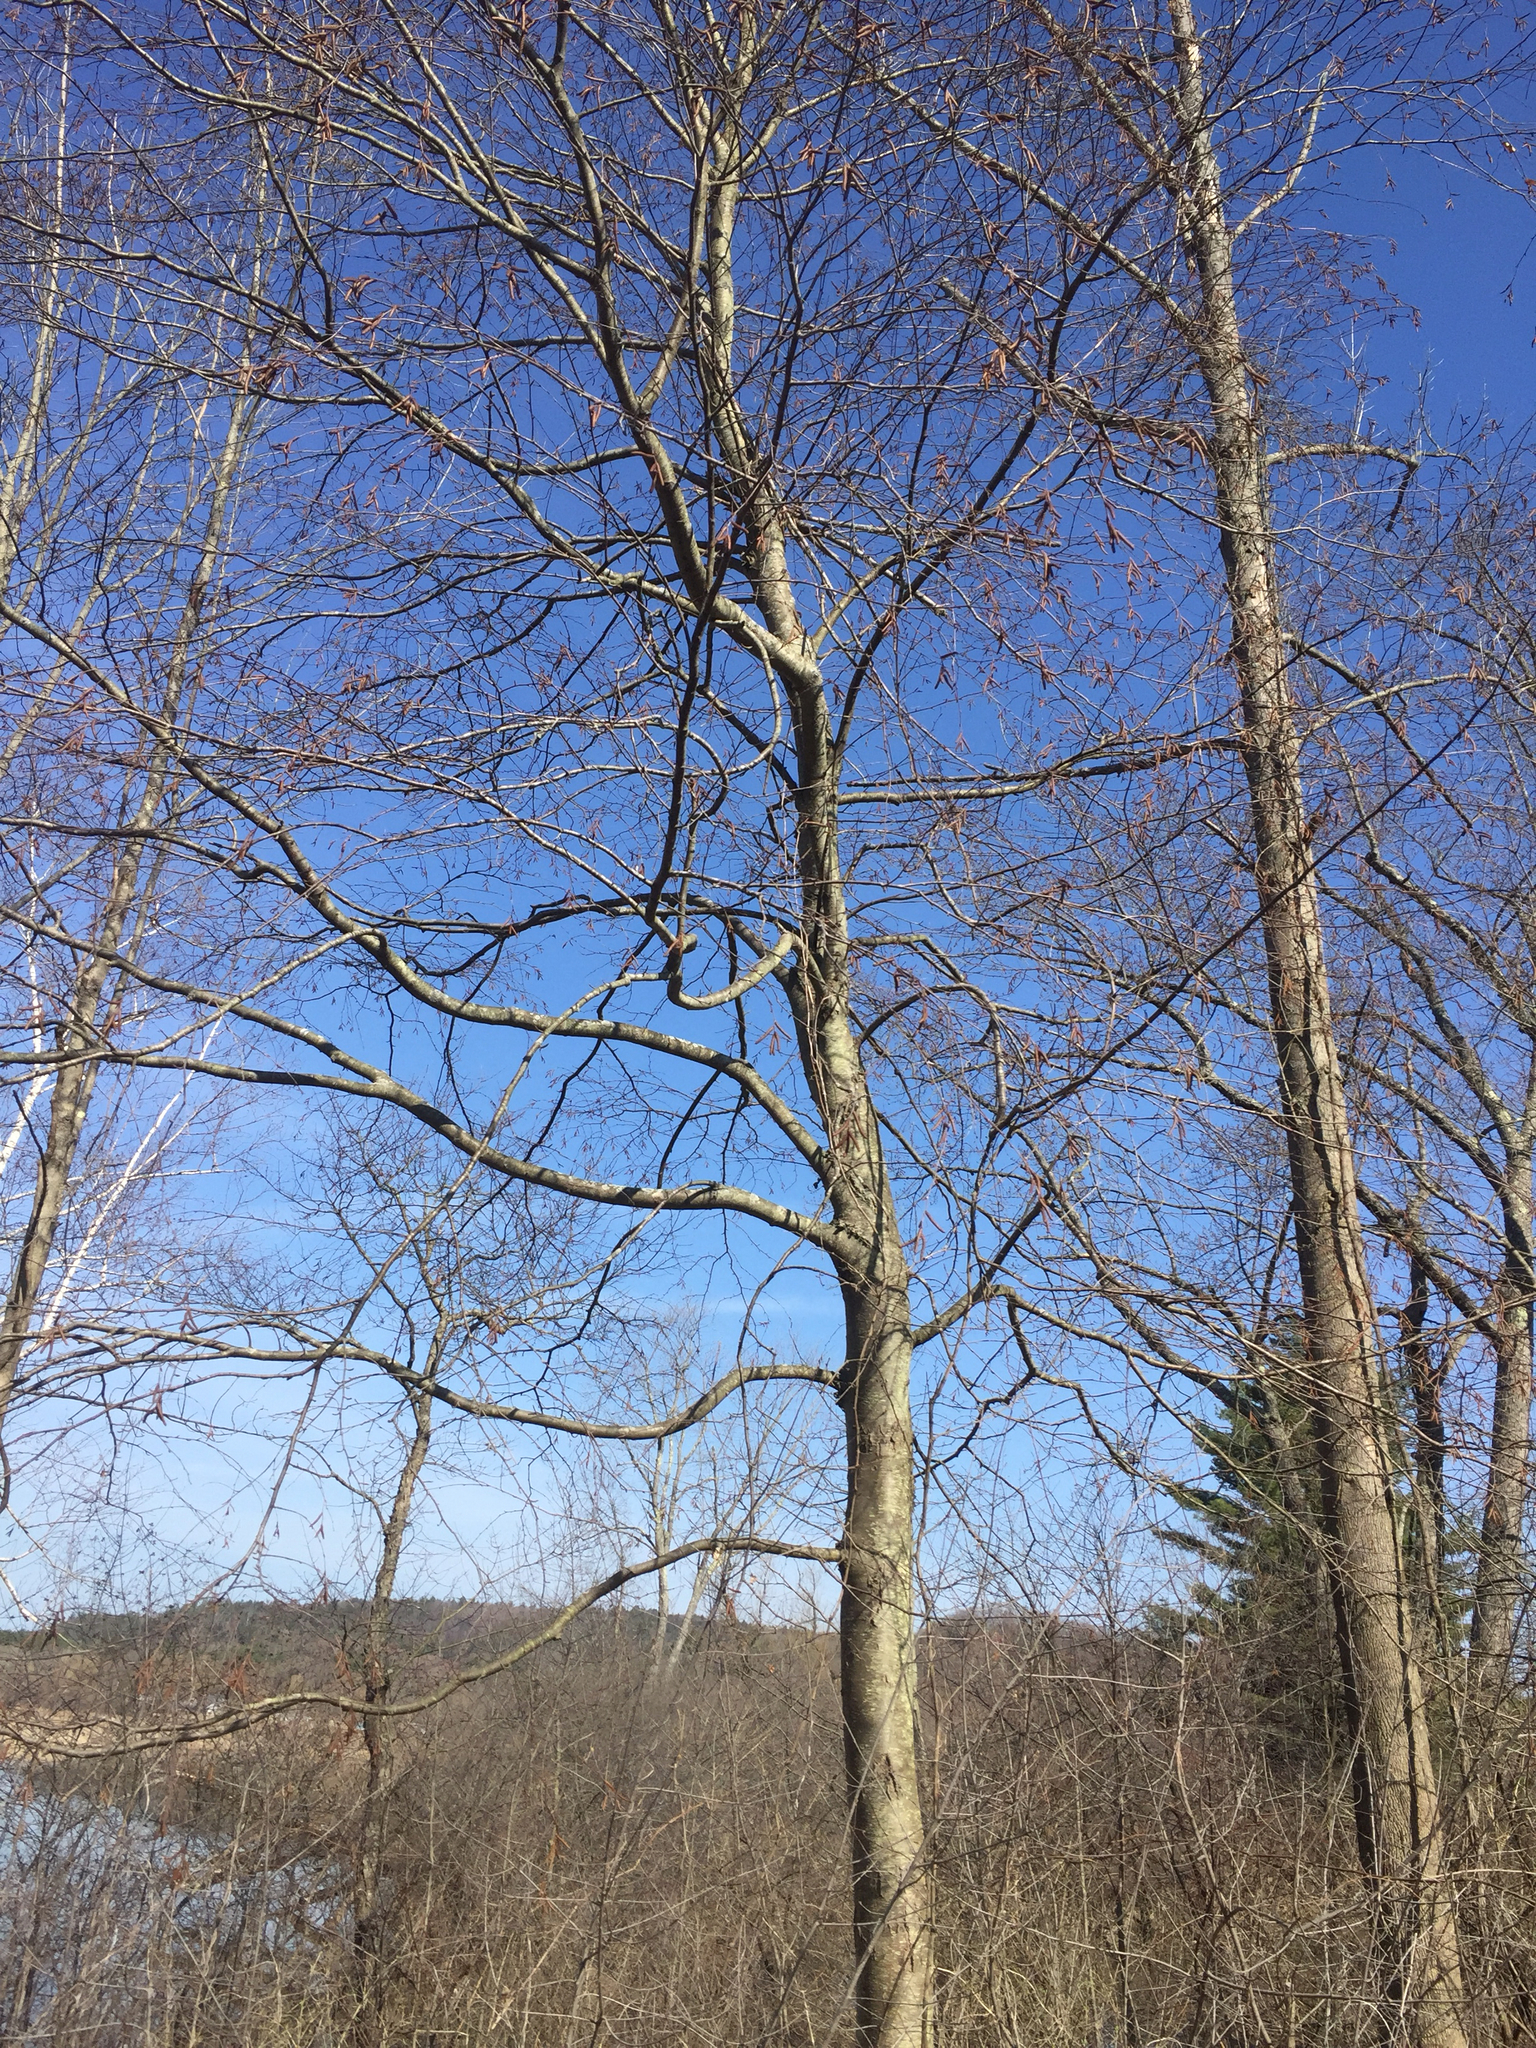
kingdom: Plantae
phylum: Tracheophyta
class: Magnoliopsida
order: Fagales
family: Betulaceae
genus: Betula
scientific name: Betula lenta
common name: Black birch
